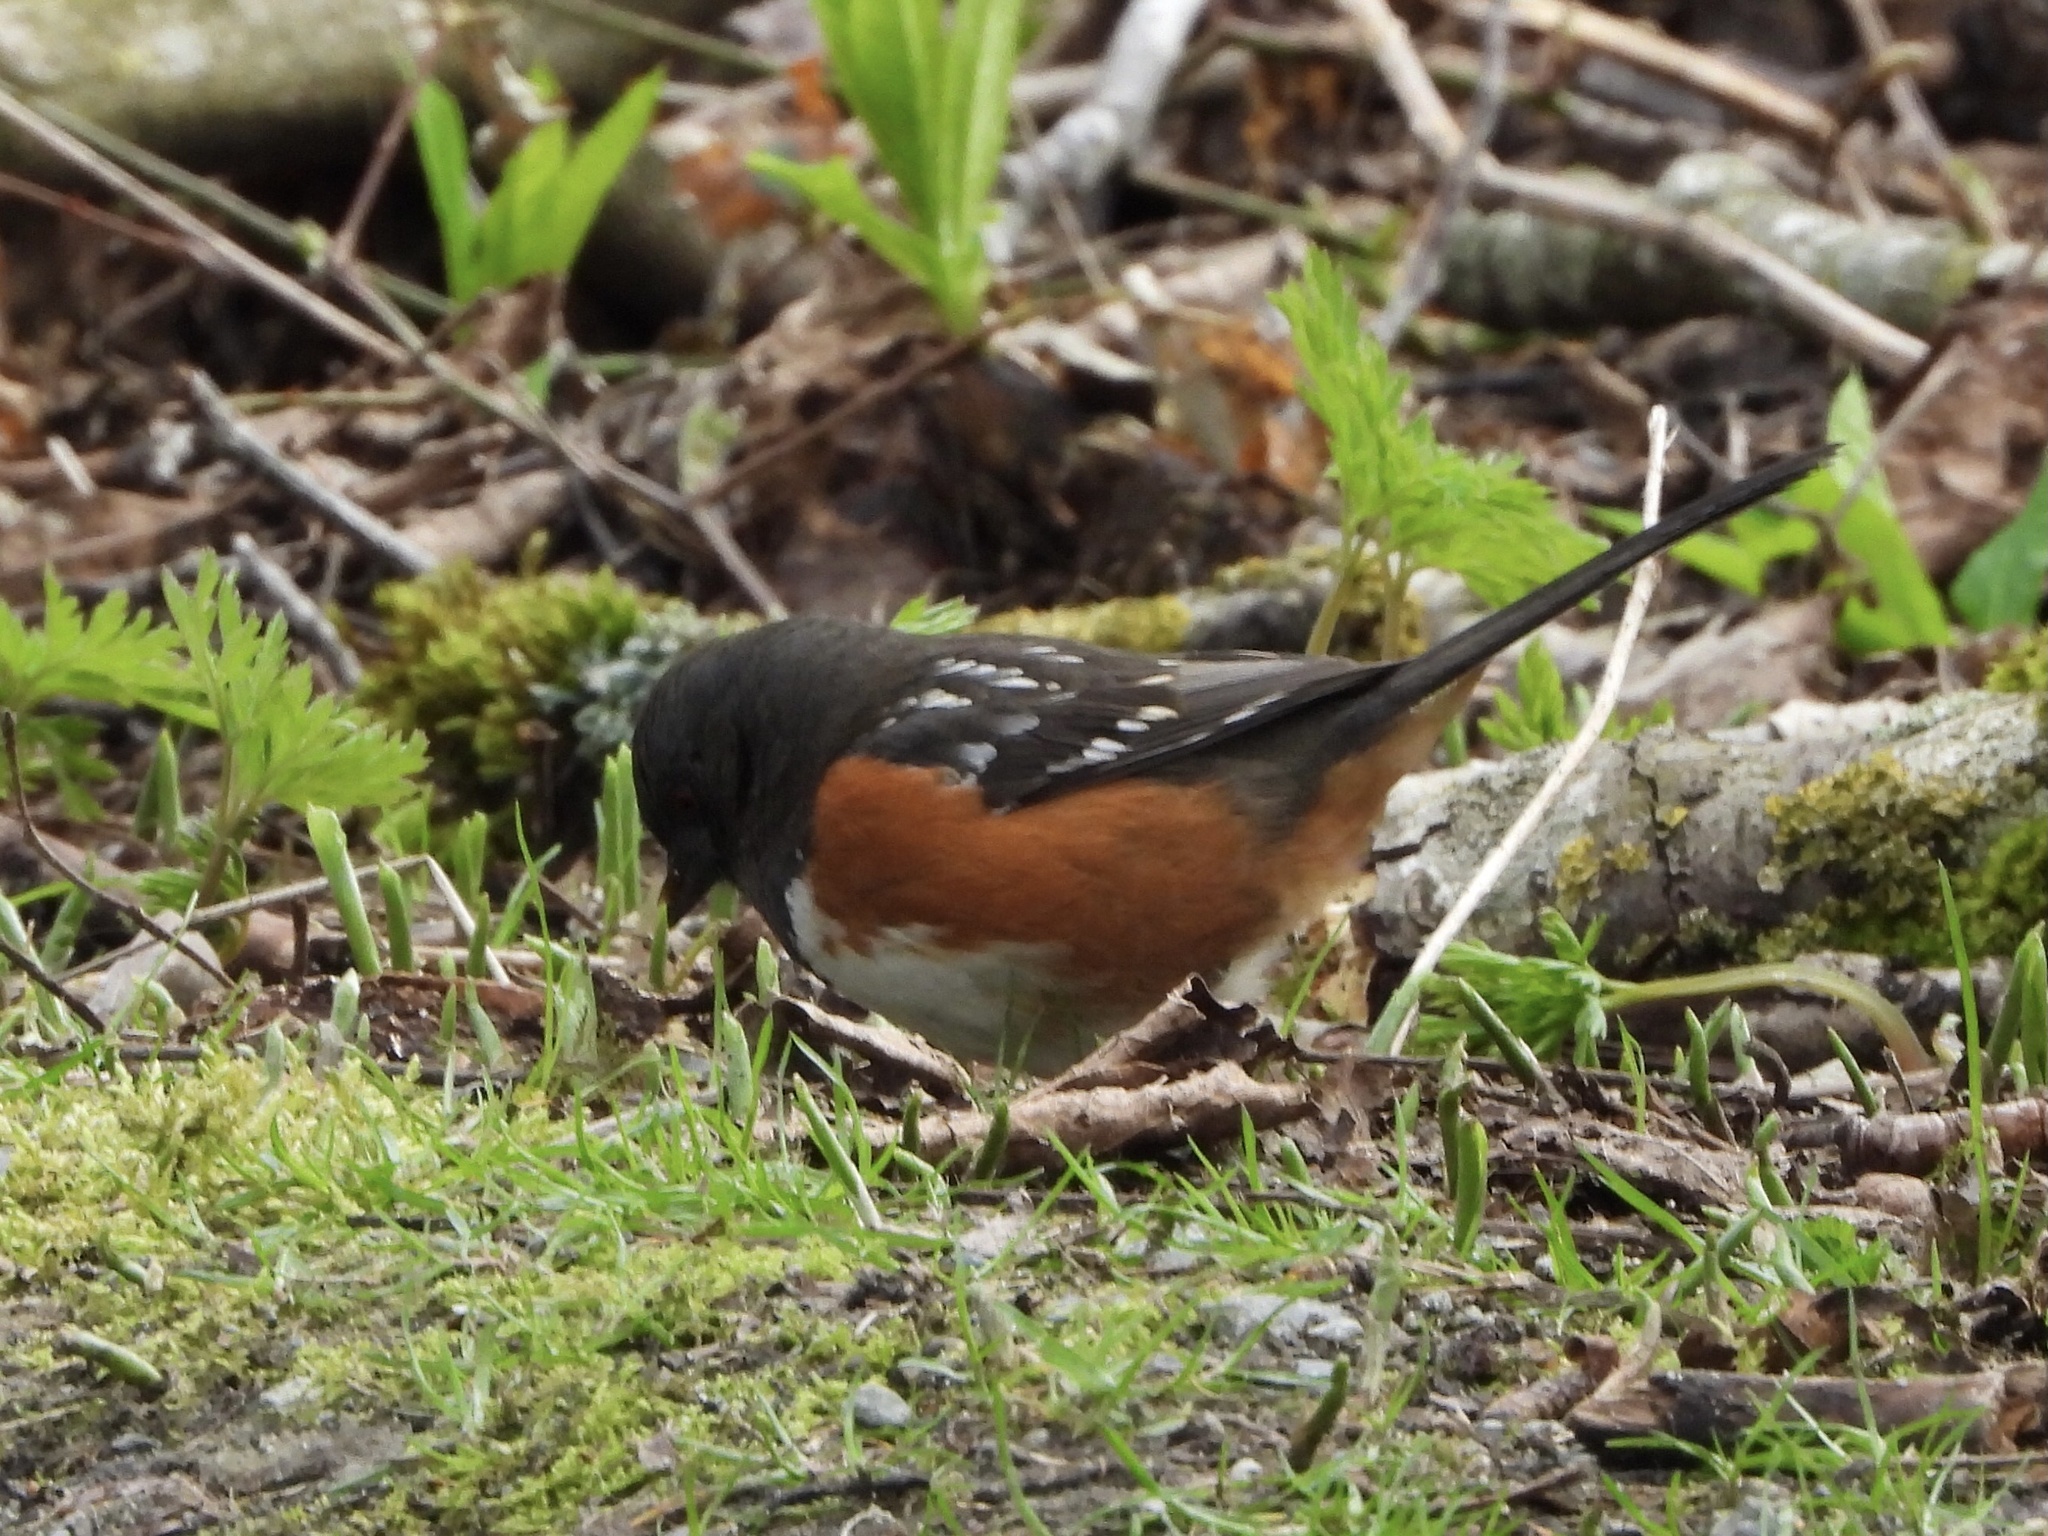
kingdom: Animalia
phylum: Chordata
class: Aves
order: Passeriformes
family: Passerellidae
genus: Pipilo
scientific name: Pipilo maculatus
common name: Spotted towhee
